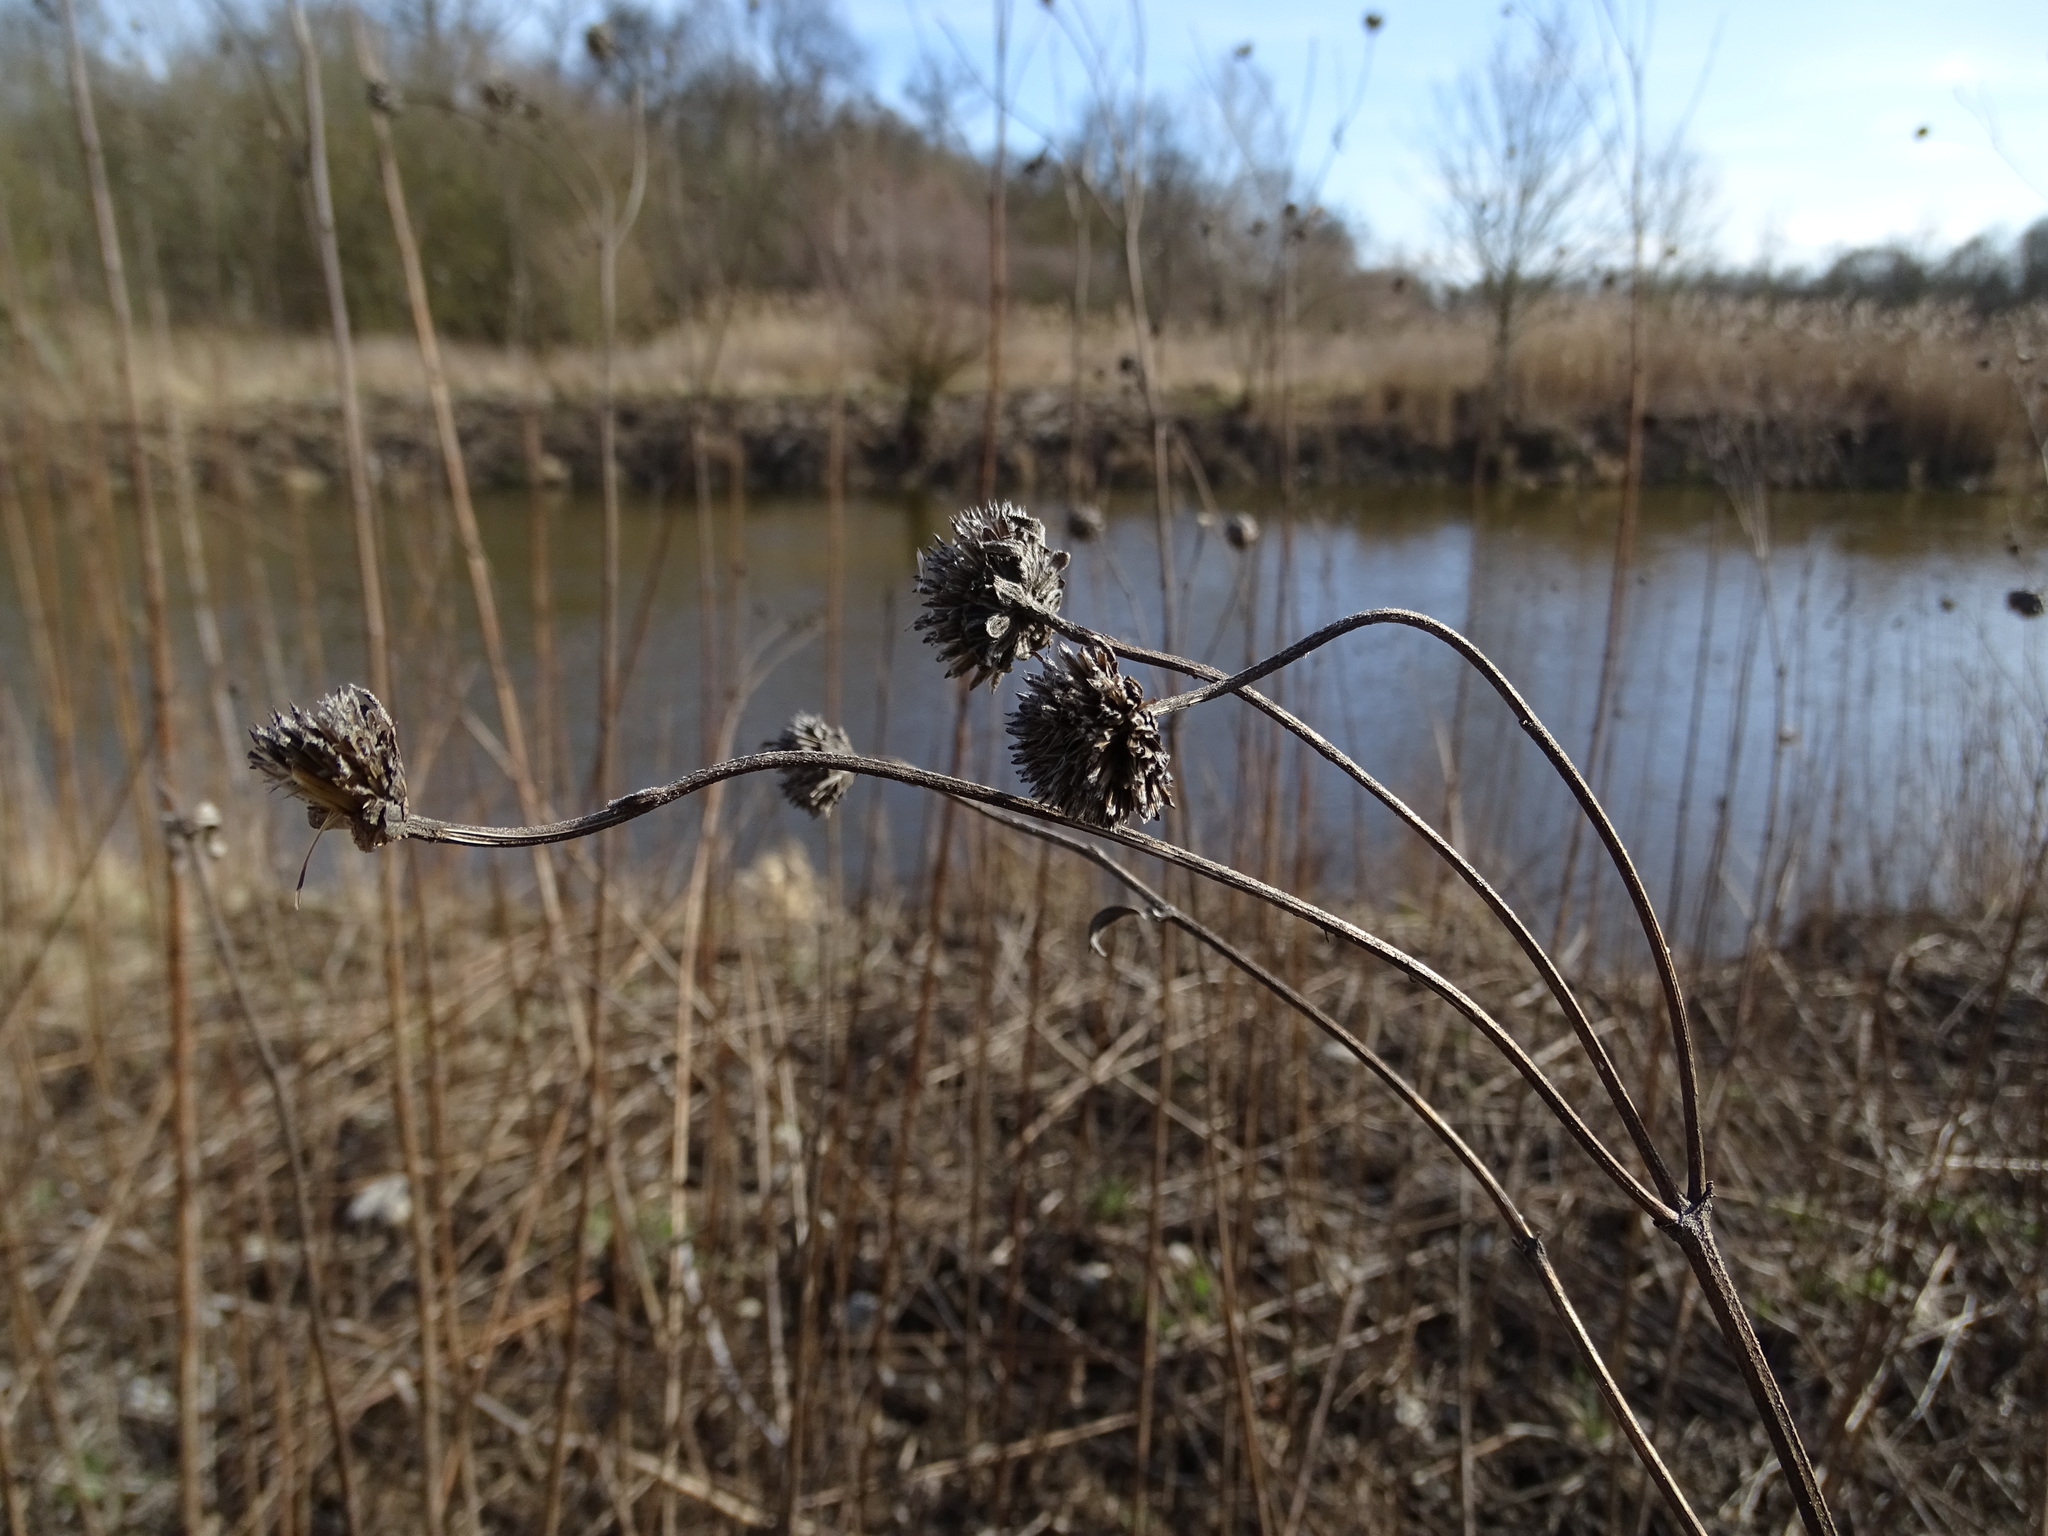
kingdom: Plantae
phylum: Tracheophyta
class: Magnoliopsida
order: Asterales
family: Asteraceae
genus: Helianthus
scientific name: Helianthus tuberosus
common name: Jerusalem artichoke
